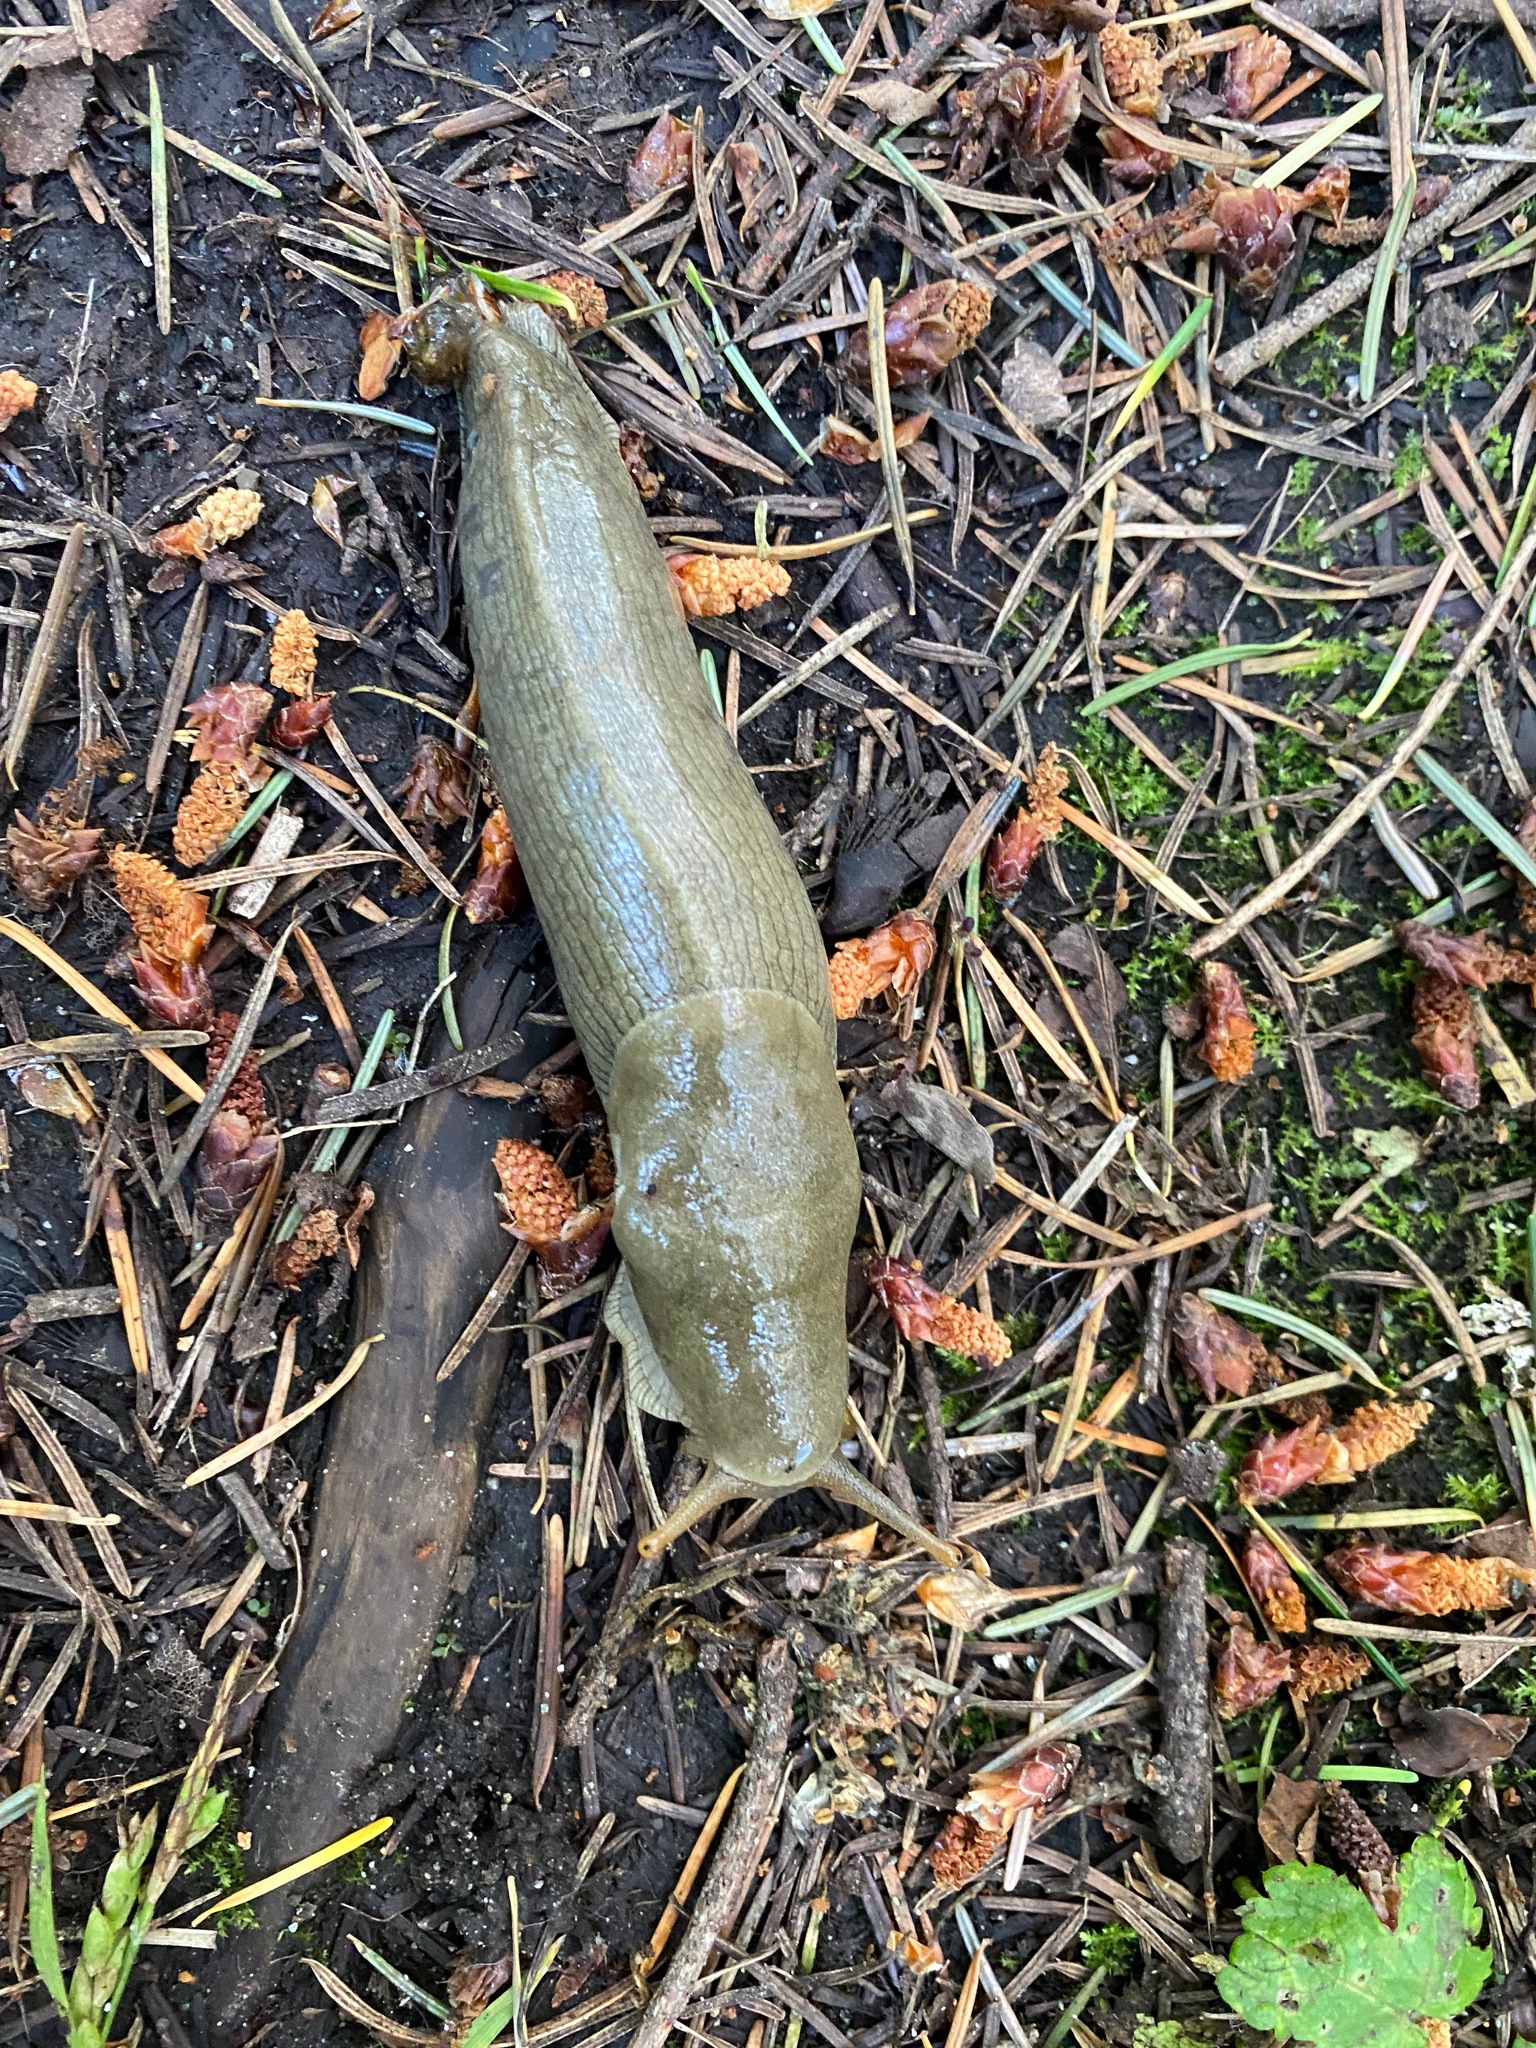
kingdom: Animalia
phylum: Mollusca
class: Gastropoda
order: Stylommatophora
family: Ariolimacidae
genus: Ariolimax
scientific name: Ariolimax columbianus
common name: Pacific banana slug
